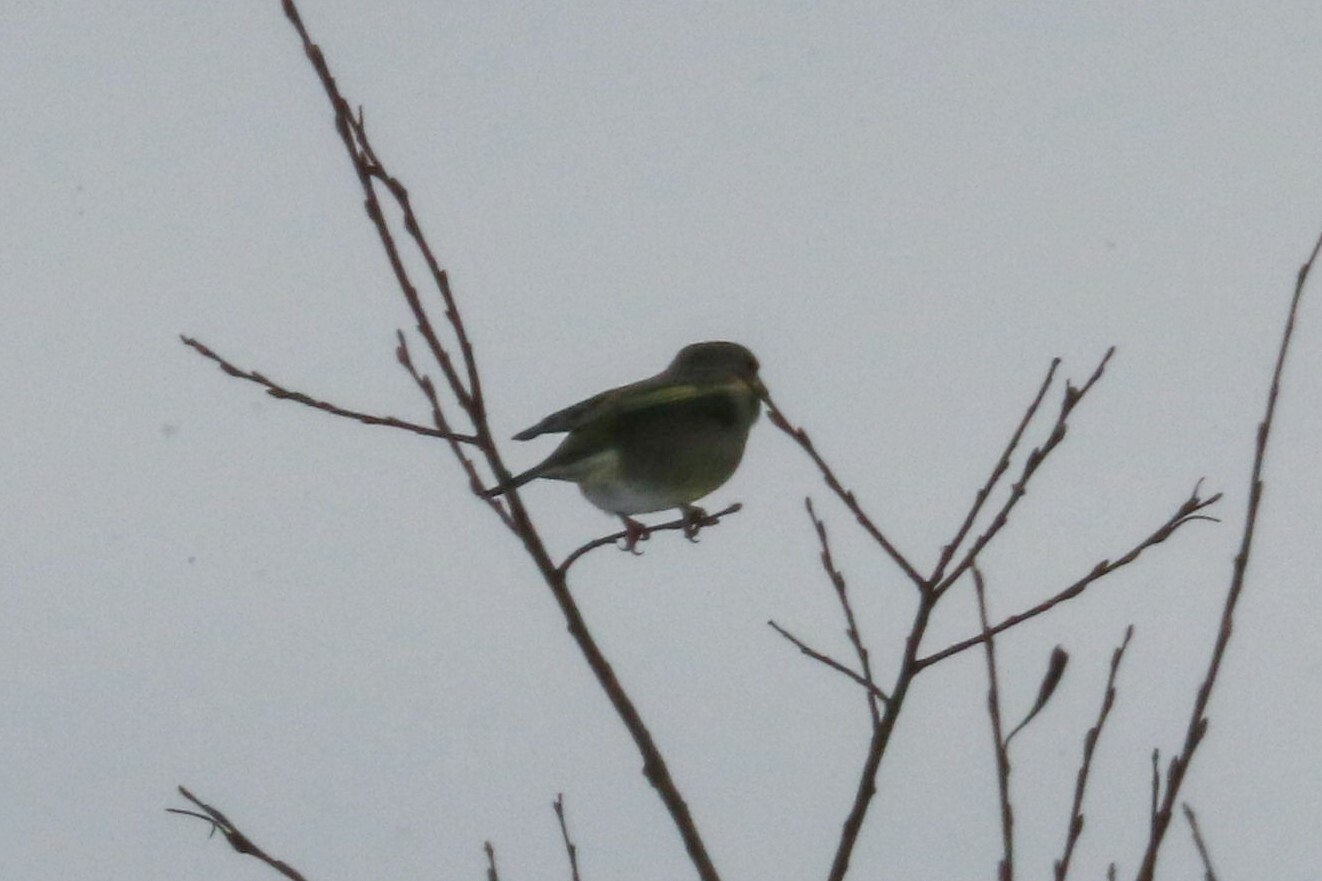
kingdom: Plantae
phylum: Tracheophyta
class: Liliopsida
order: Poales
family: Poaceae
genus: Chloris
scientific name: Chloris chloris
